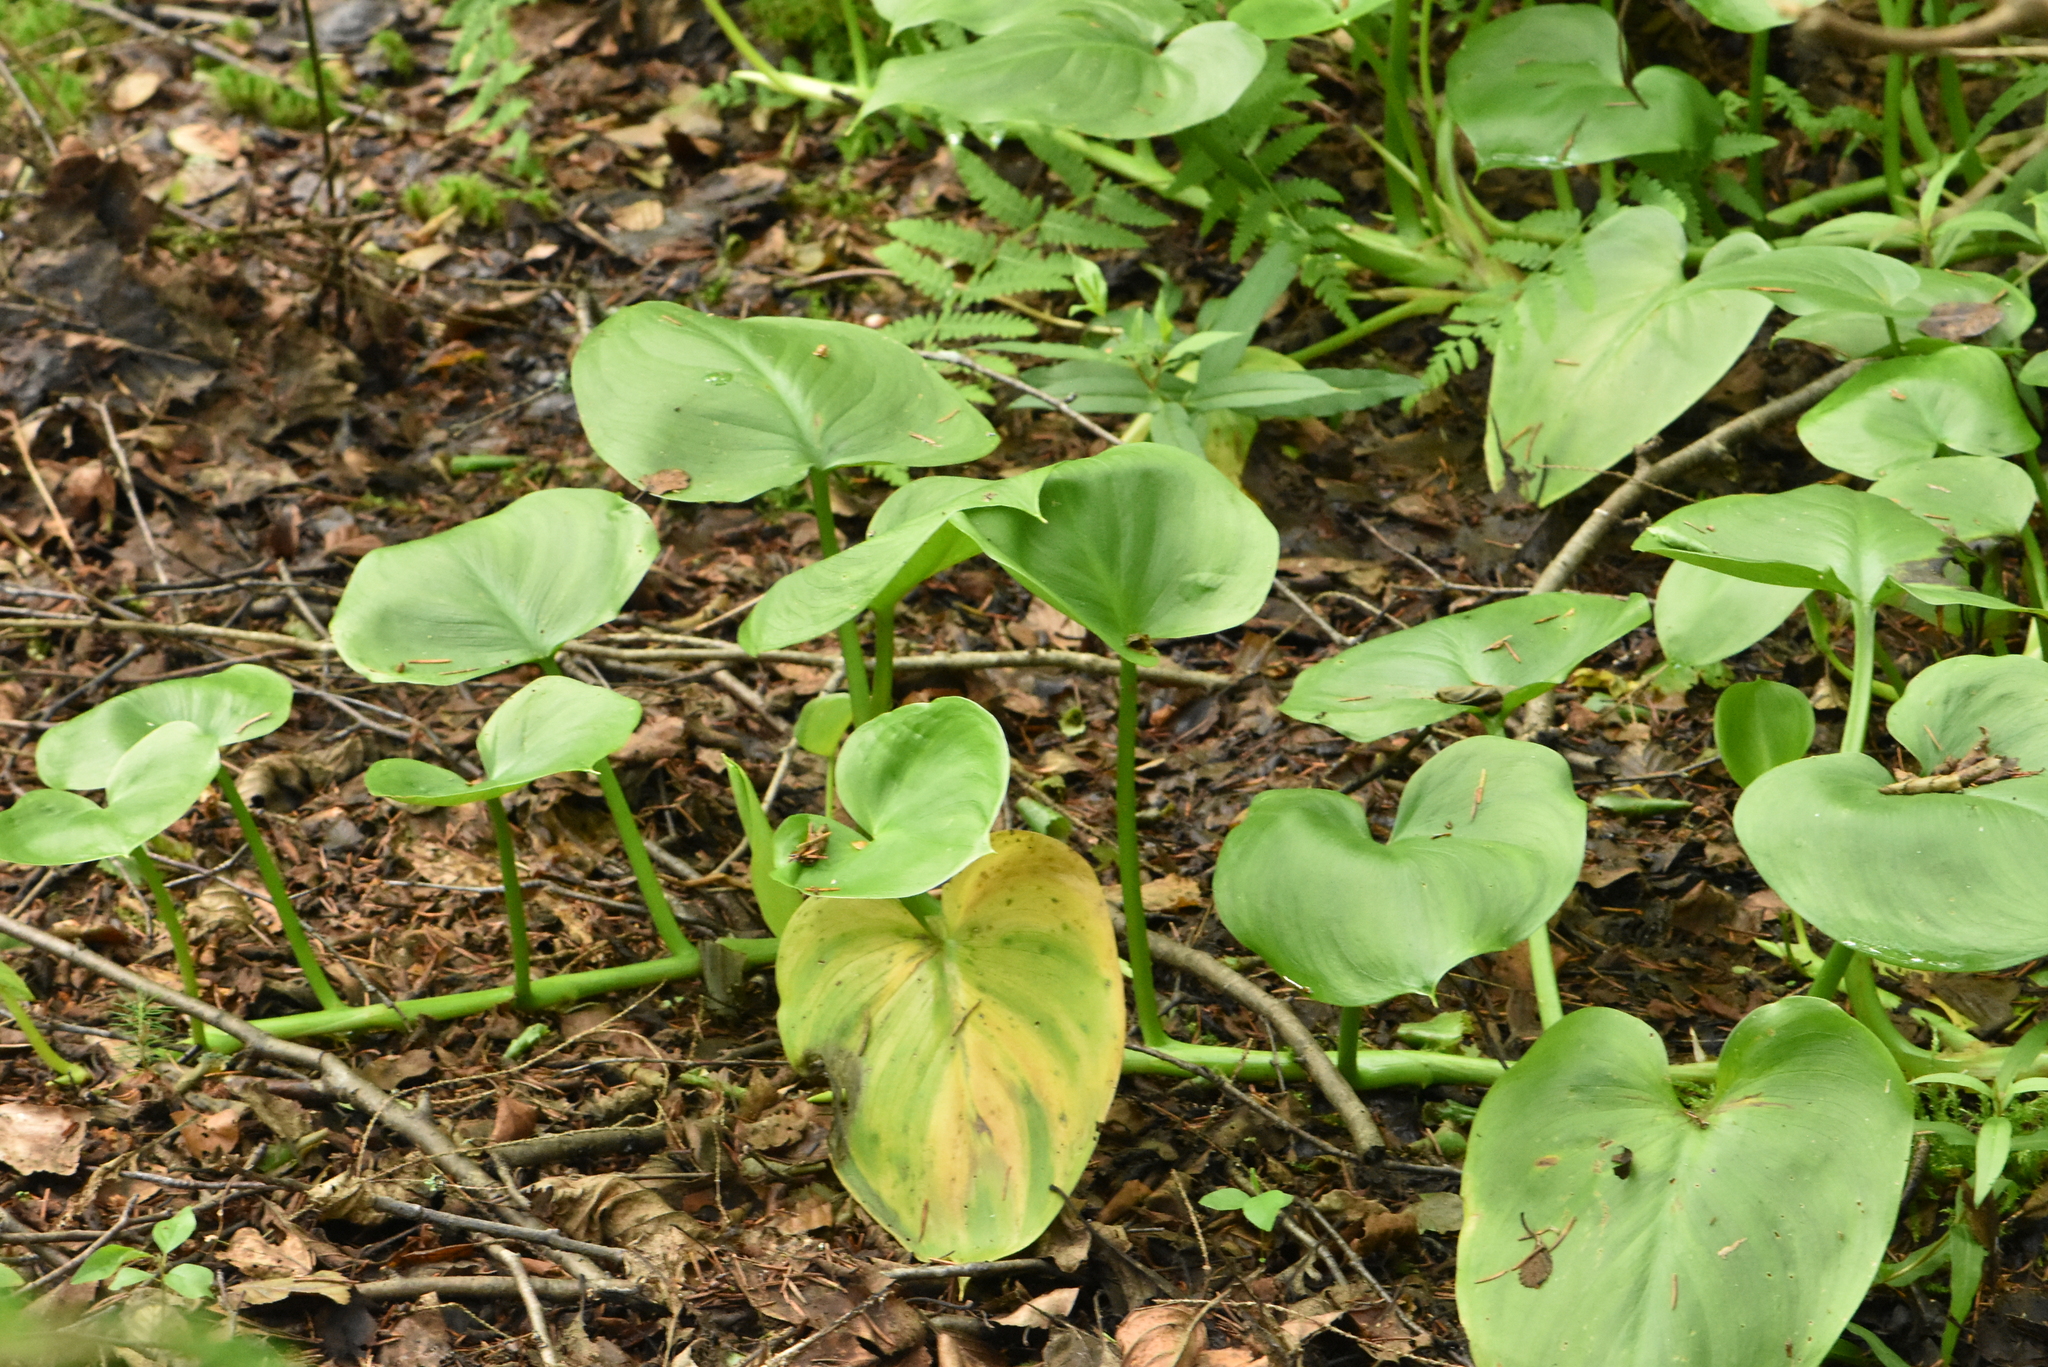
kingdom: Plantae
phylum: Tracheophyta
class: Liliopsida
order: Alismatales
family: Araceae
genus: Calla
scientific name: Calla palustris
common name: Bog arum
